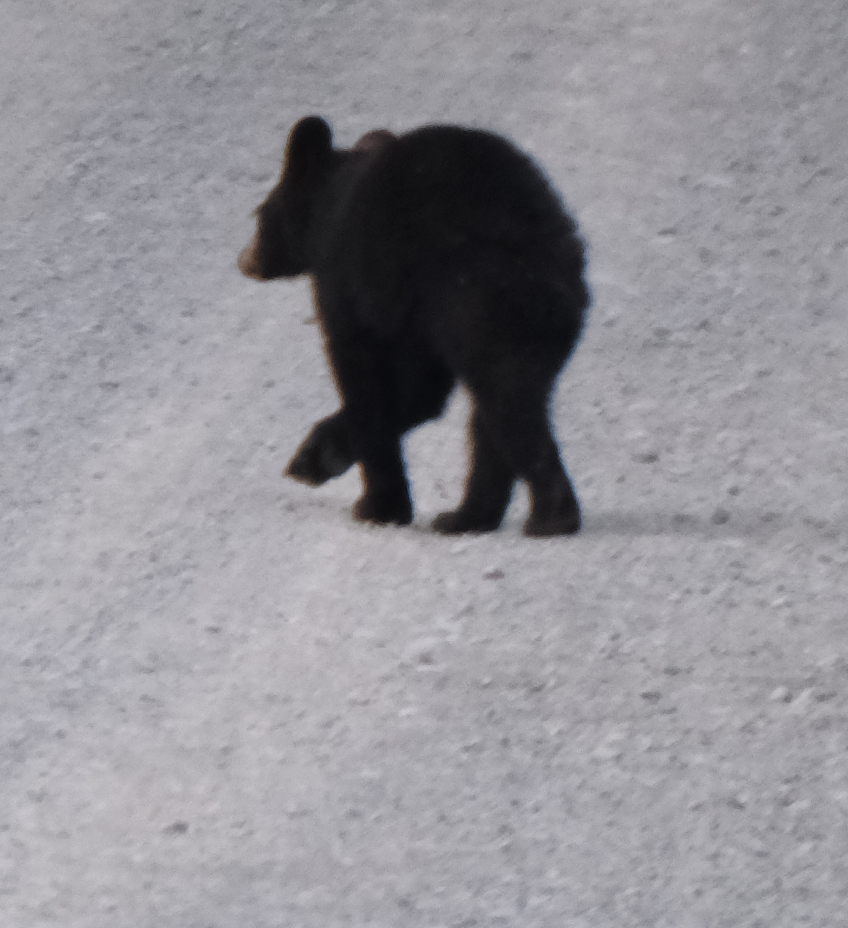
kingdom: Animalia
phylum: Chordata
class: Mammalia
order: Carnivora
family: Ursidae
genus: Ursus
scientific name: Ursus americanus
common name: American black bear
